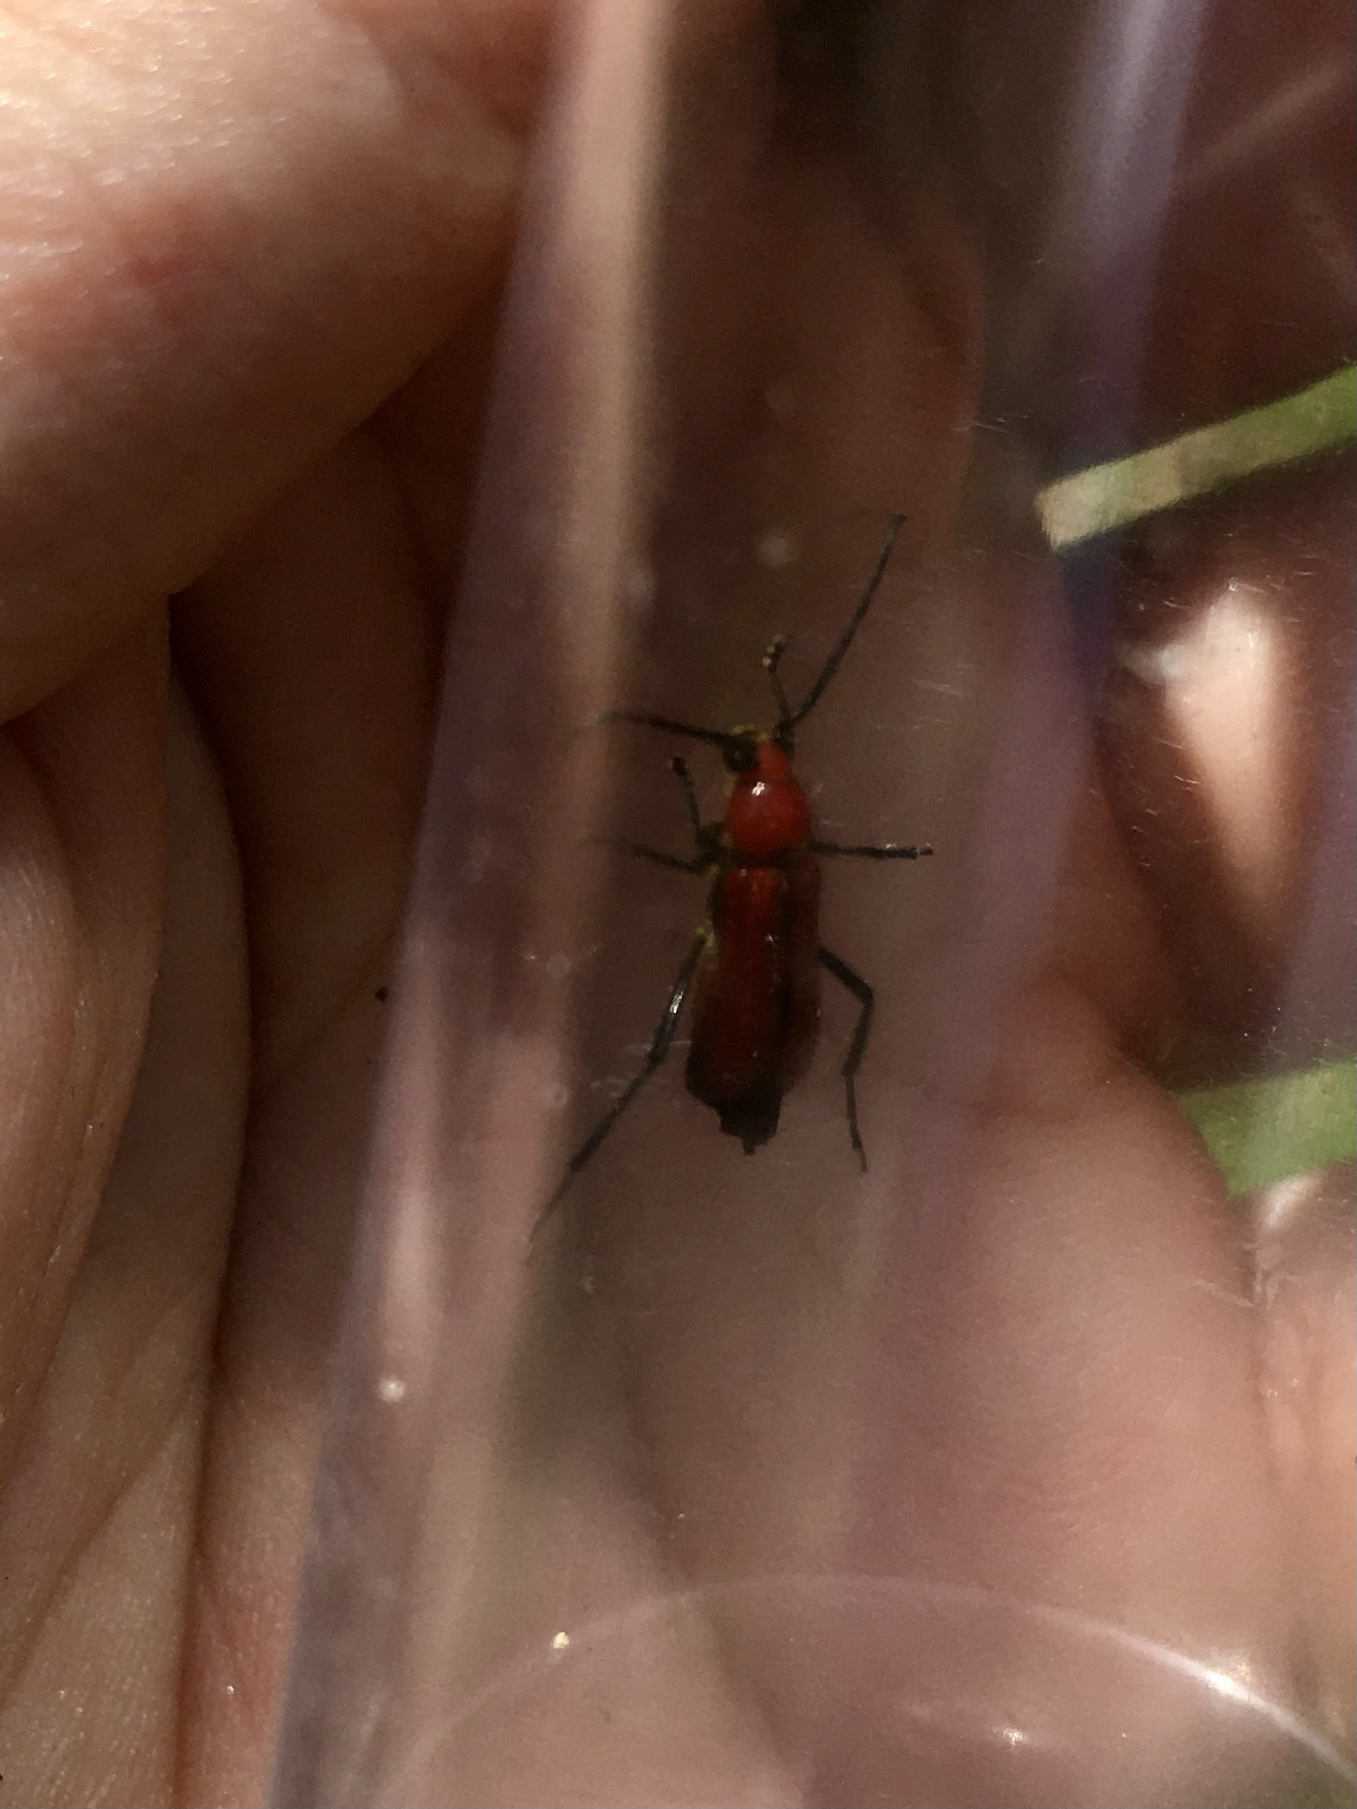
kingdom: Animalia
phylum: Arthropoda
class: Insecta
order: Coleoptera
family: Cerambycidae
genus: Batyle
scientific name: Batyle suturalis
